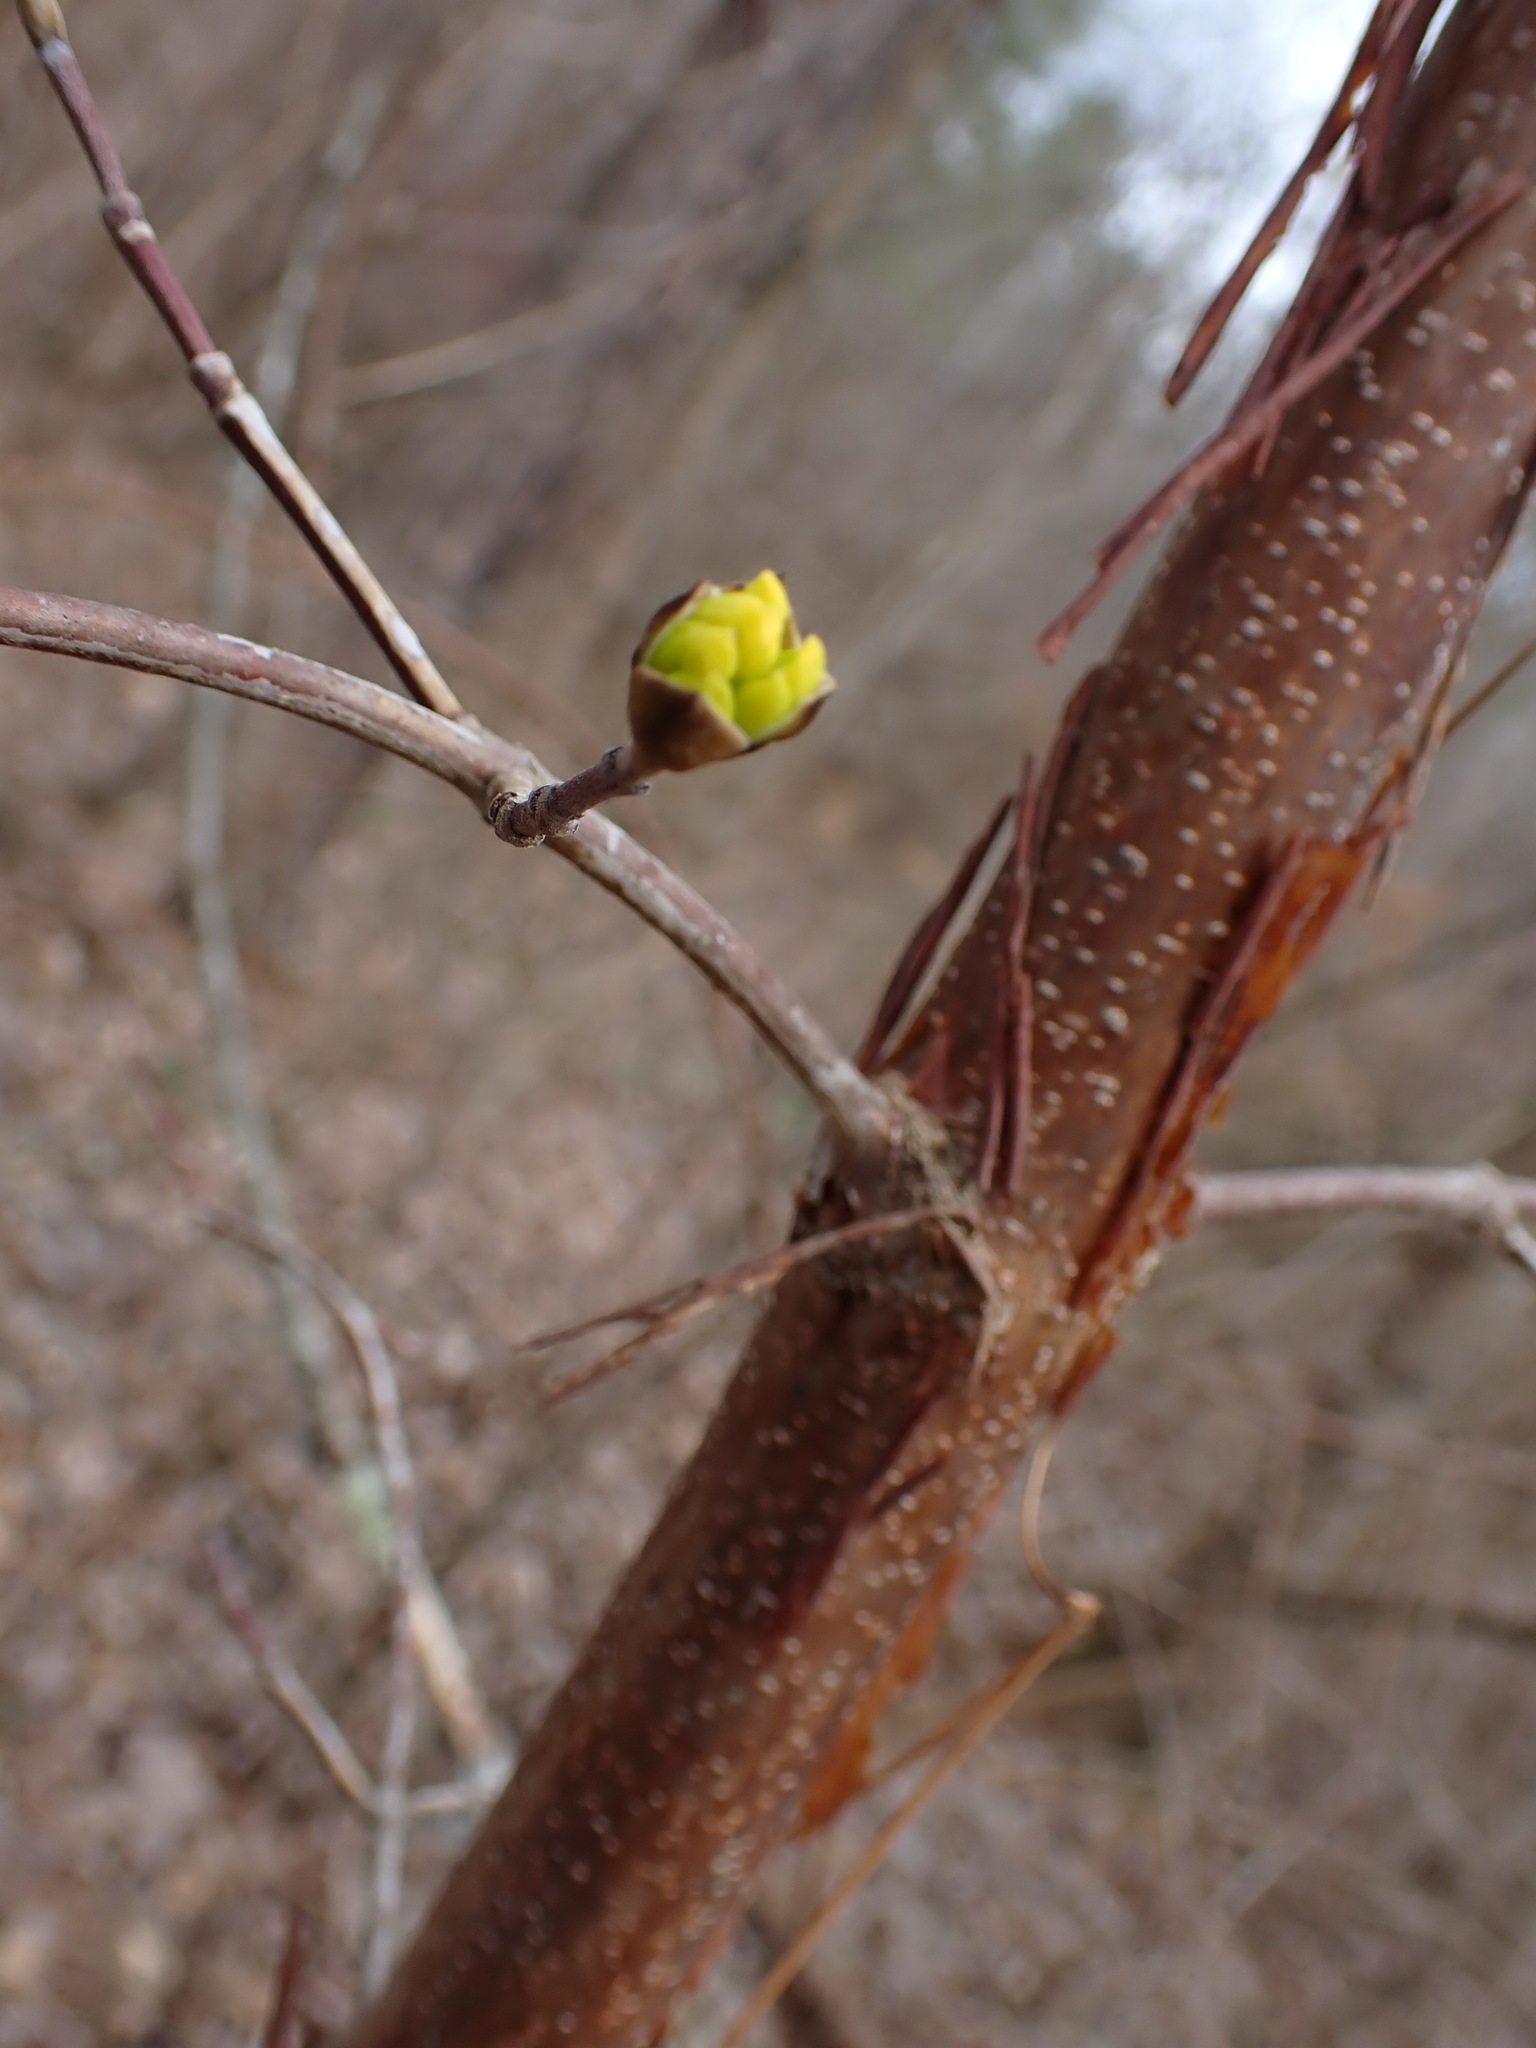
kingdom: Plantae
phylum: Tracheophyta
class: Magnoliopsida
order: Cornales
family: Cornaceae
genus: Cornus
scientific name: Cornus mas
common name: Cornelian-cherry
